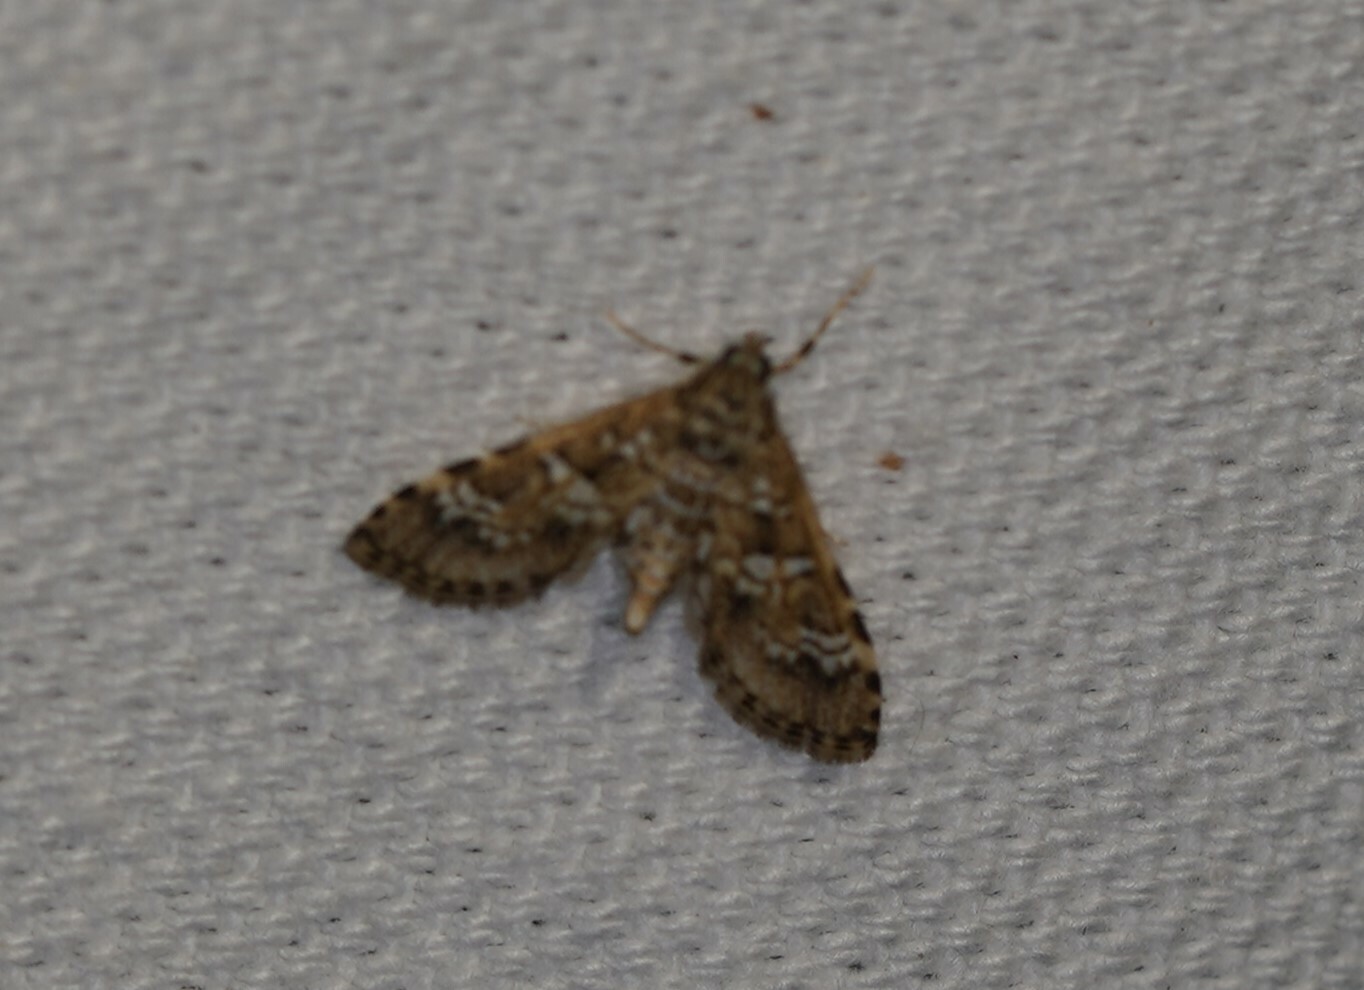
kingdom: Animalia
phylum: Arthropoda
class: Insecta
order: Lepidoptera
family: Crambidae
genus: Samea
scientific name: Samea multiplicalis
